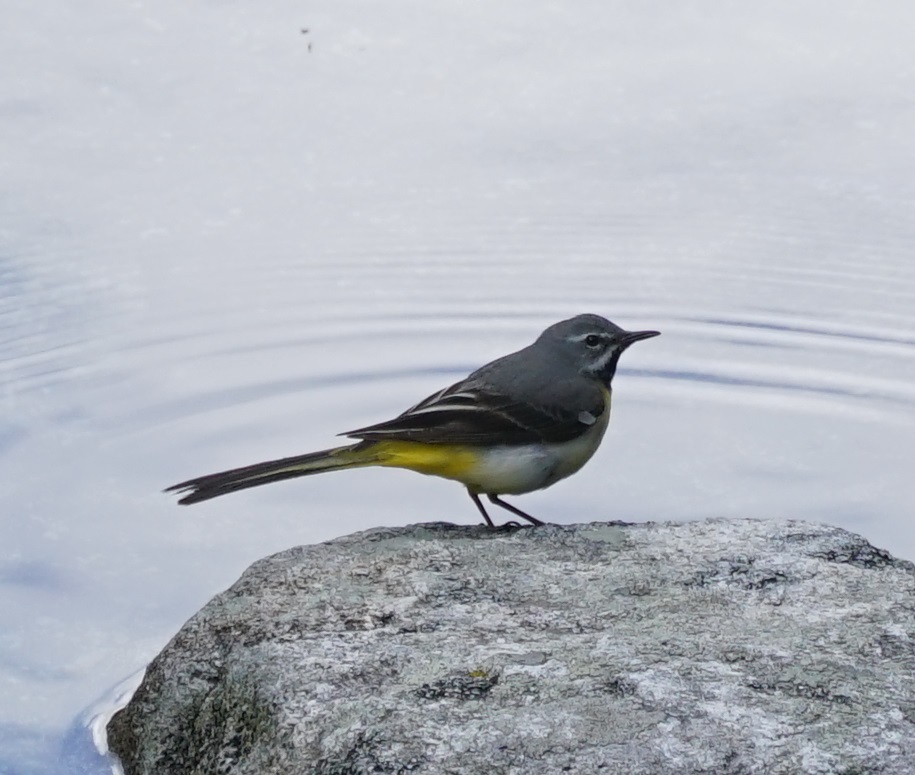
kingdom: Animalia
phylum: Chordata
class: Aves
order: Passeriformes
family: Motacillidae
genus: Motacilla
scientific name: Motacilla cinerea
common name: Grey wagtail
